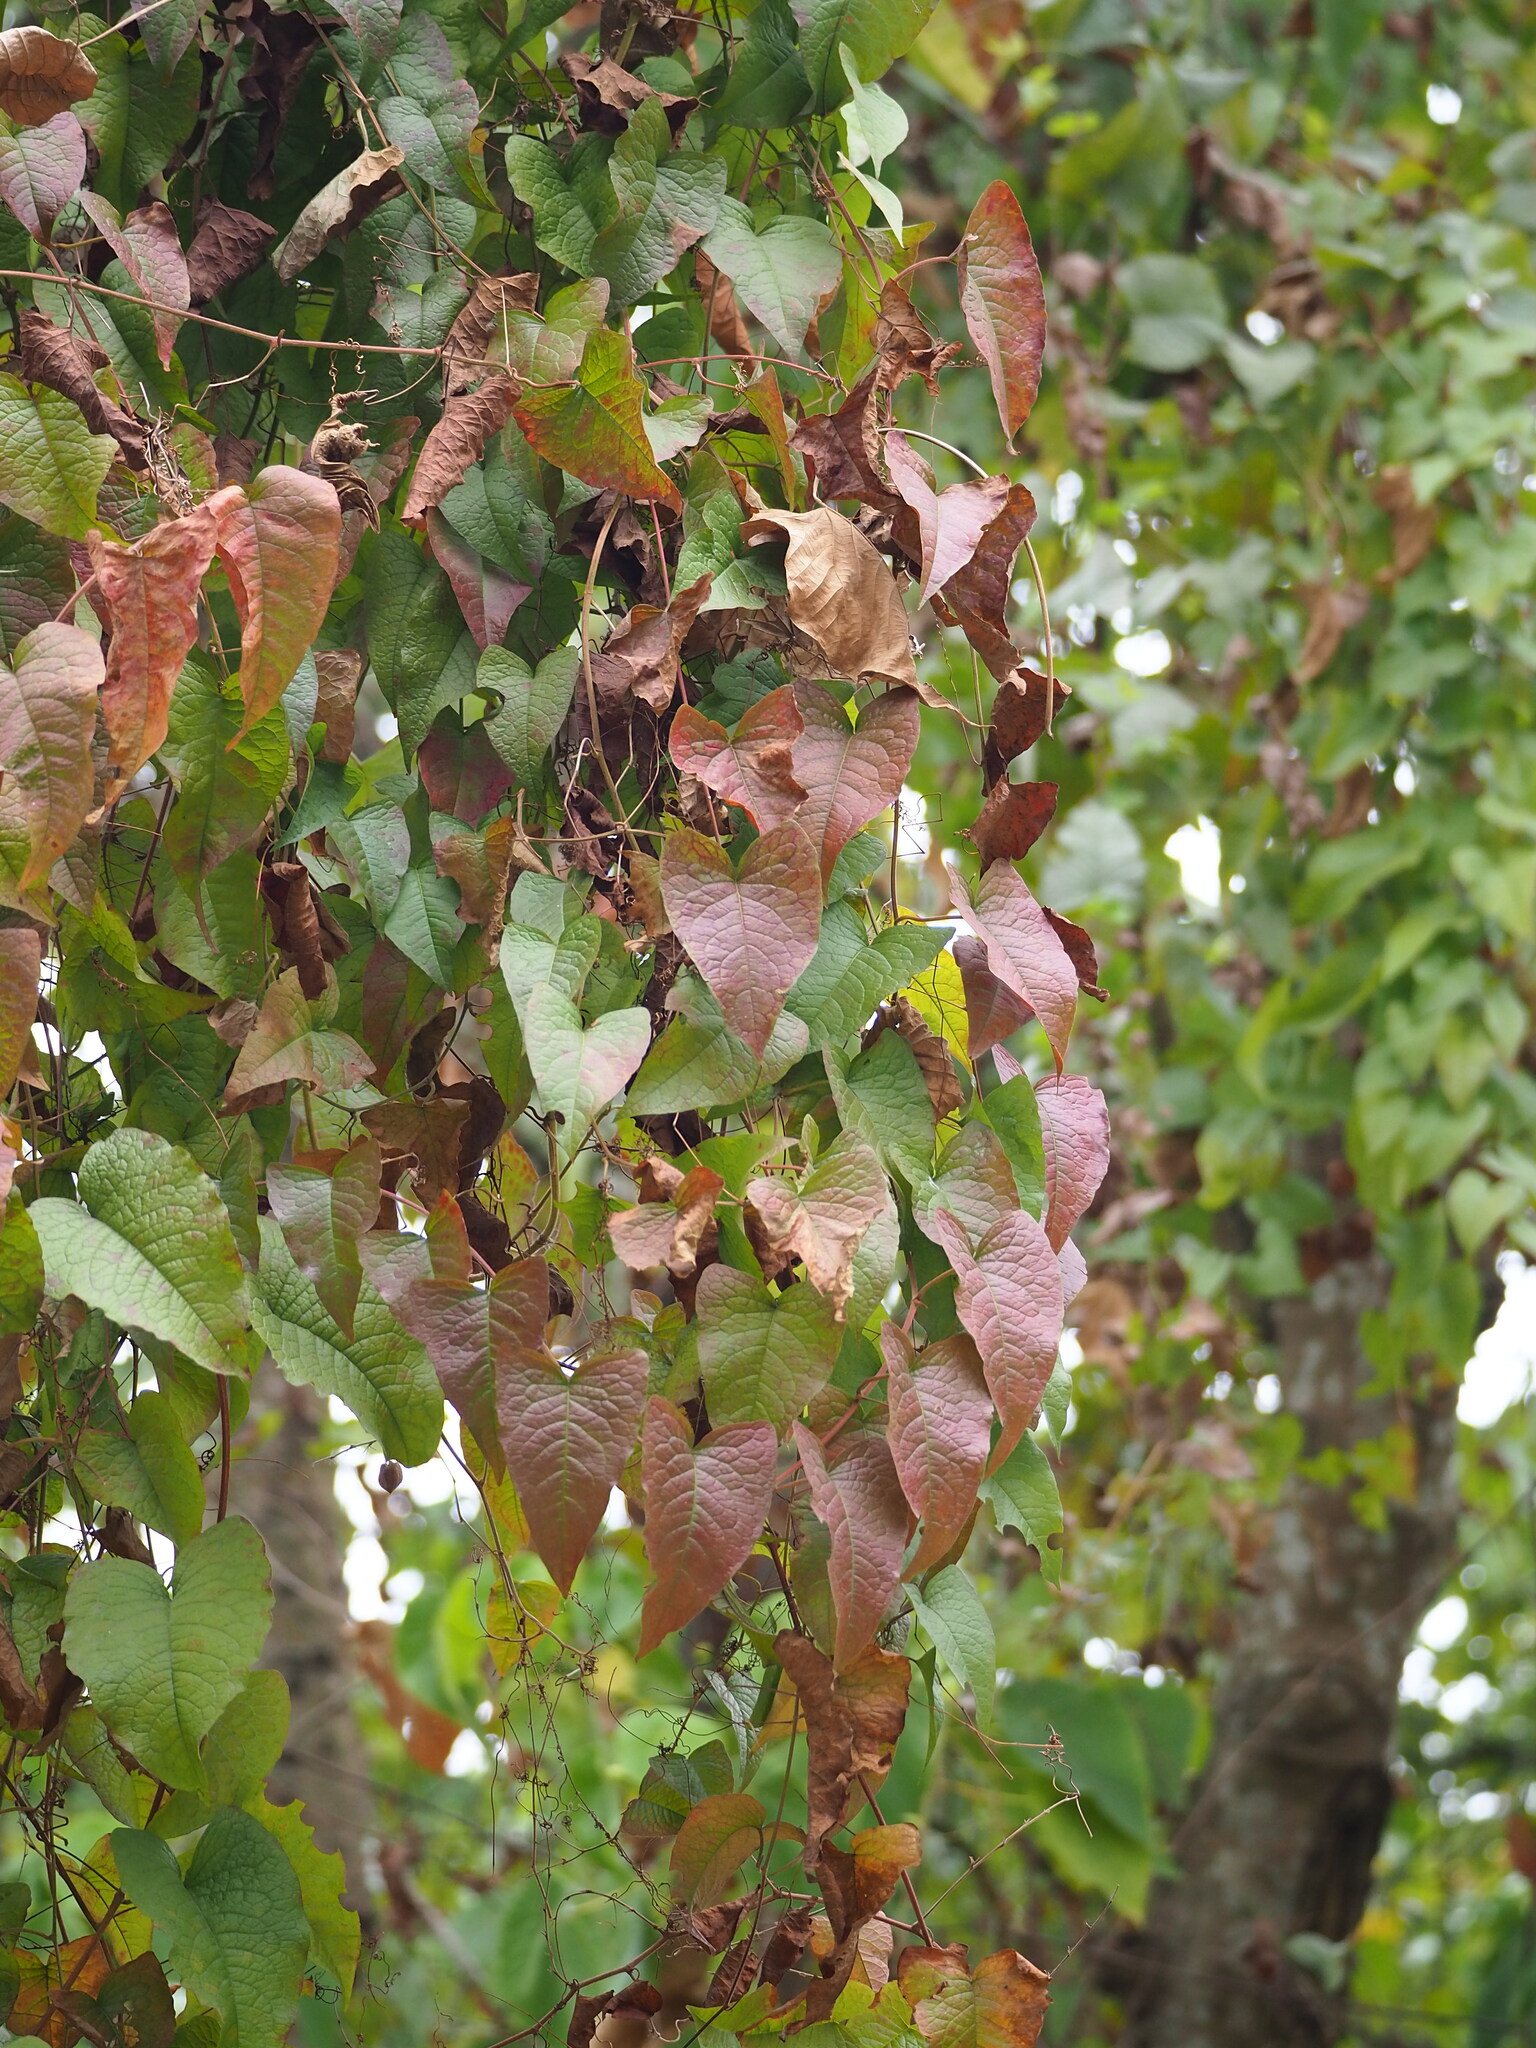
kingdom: Plantae
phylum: Tracheophyta
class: Magnoliopsida
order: Caryophyllales
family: Polygonaceae
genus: Antigonon
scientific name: Antigonon leptopus
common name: Coral vine
